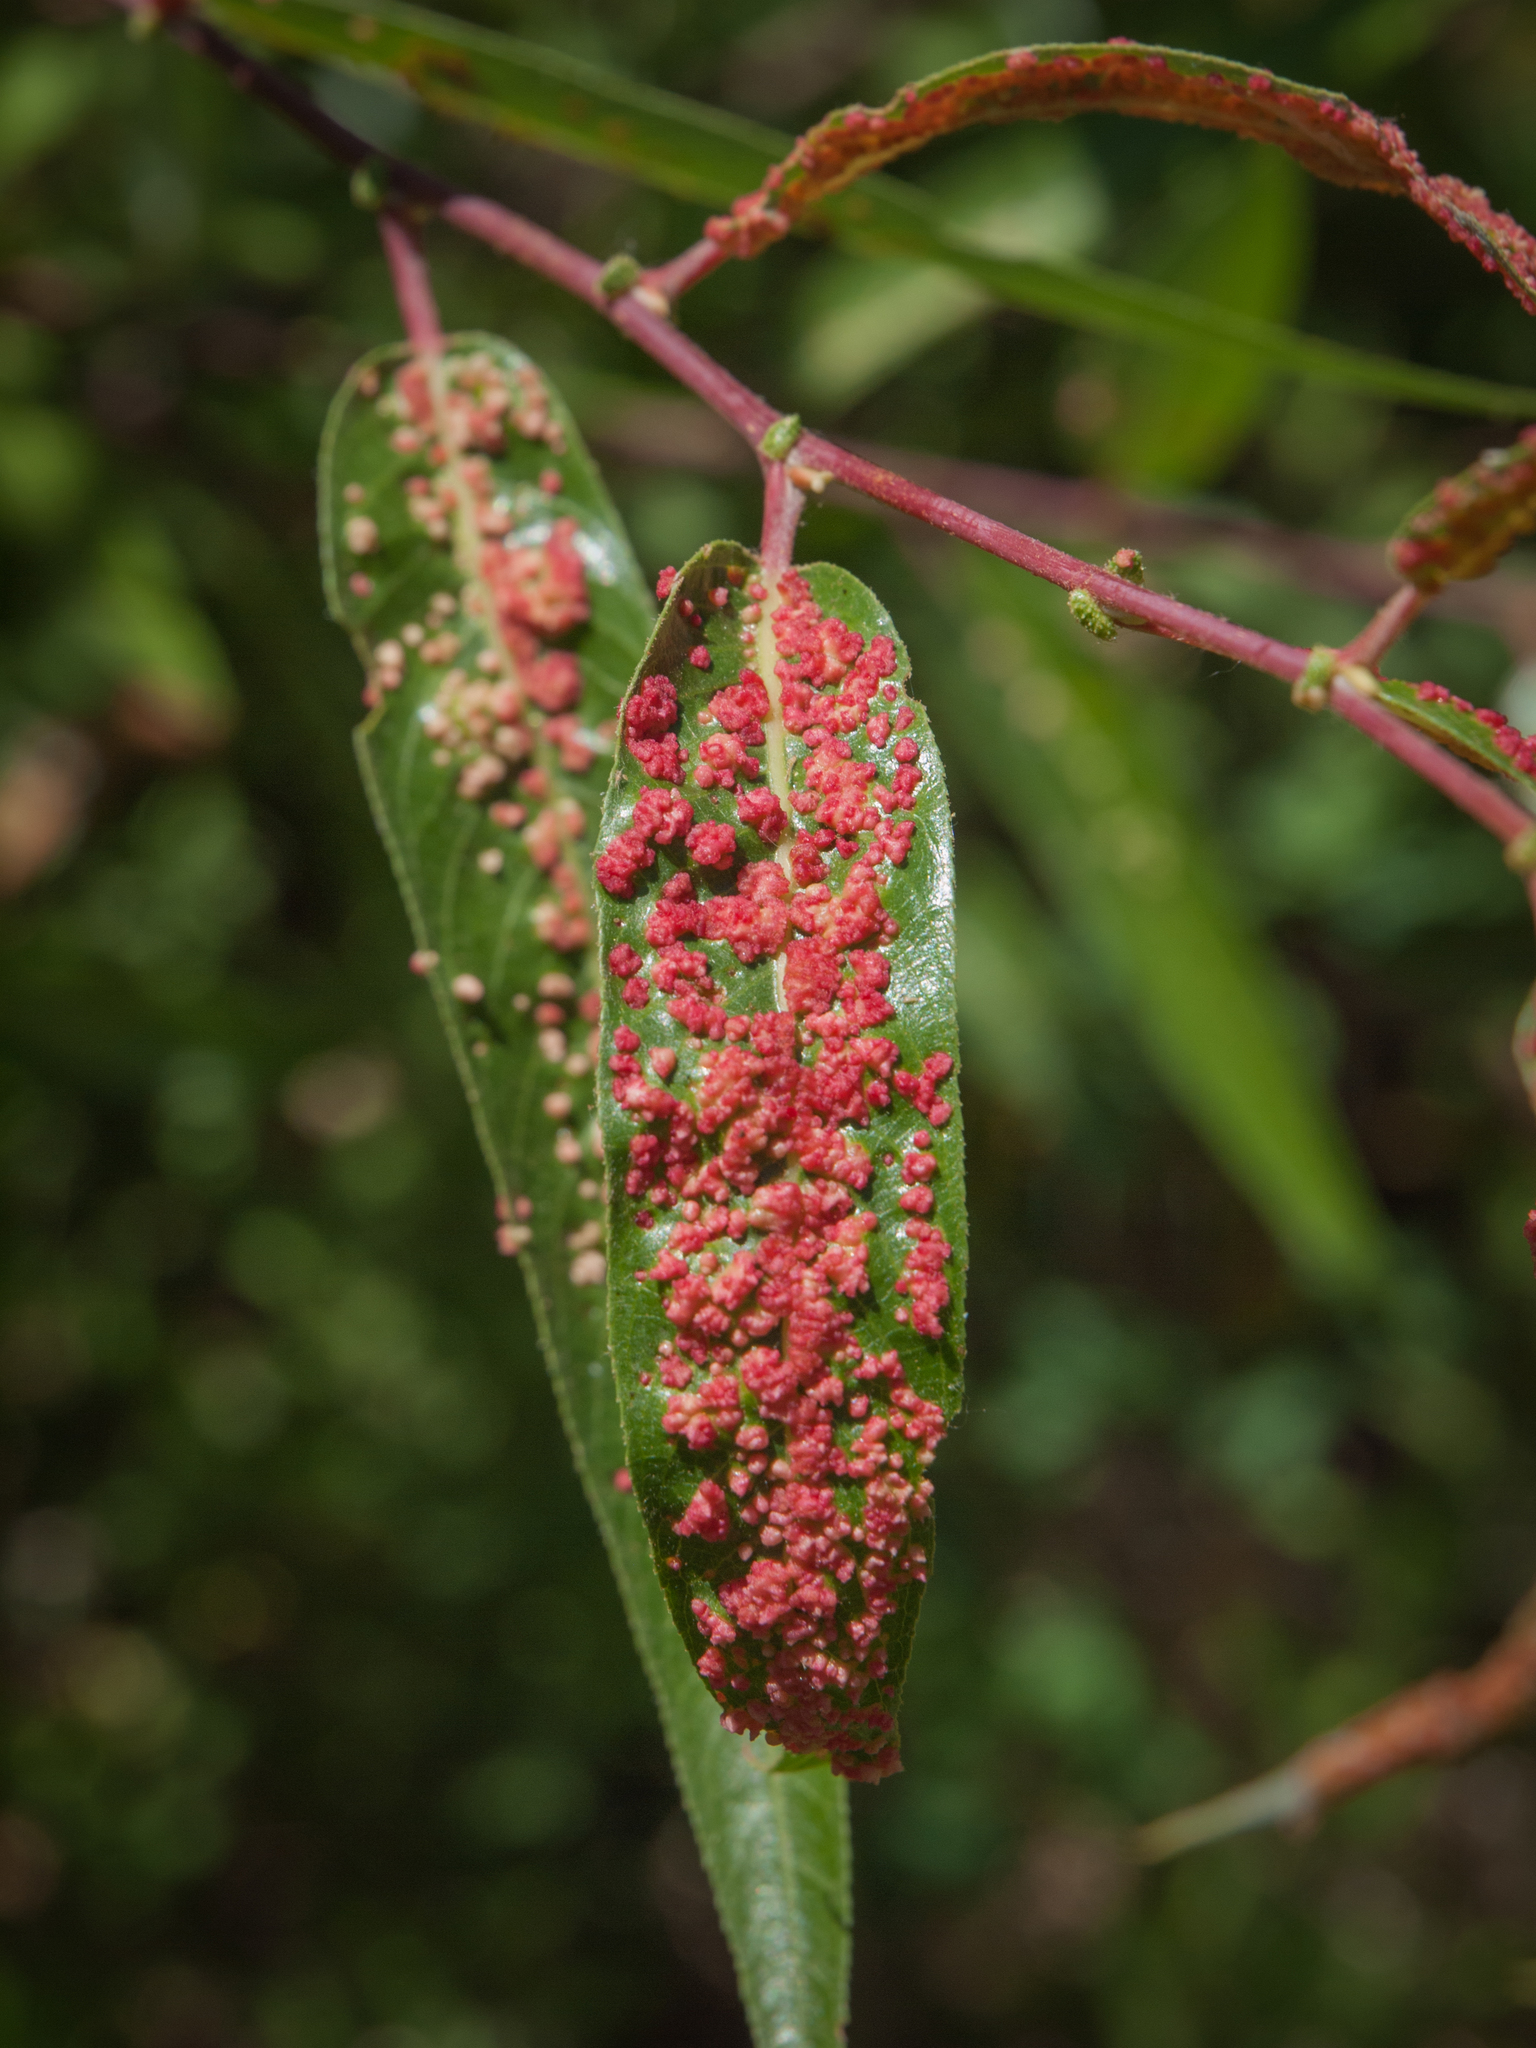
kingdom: Animalia
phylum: Arthropoda
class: Arachnida
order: Trombidiformes
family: Eriophyidae
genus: Aculus
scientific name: Aculus tetanothrix
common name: Willow bead gall mite
